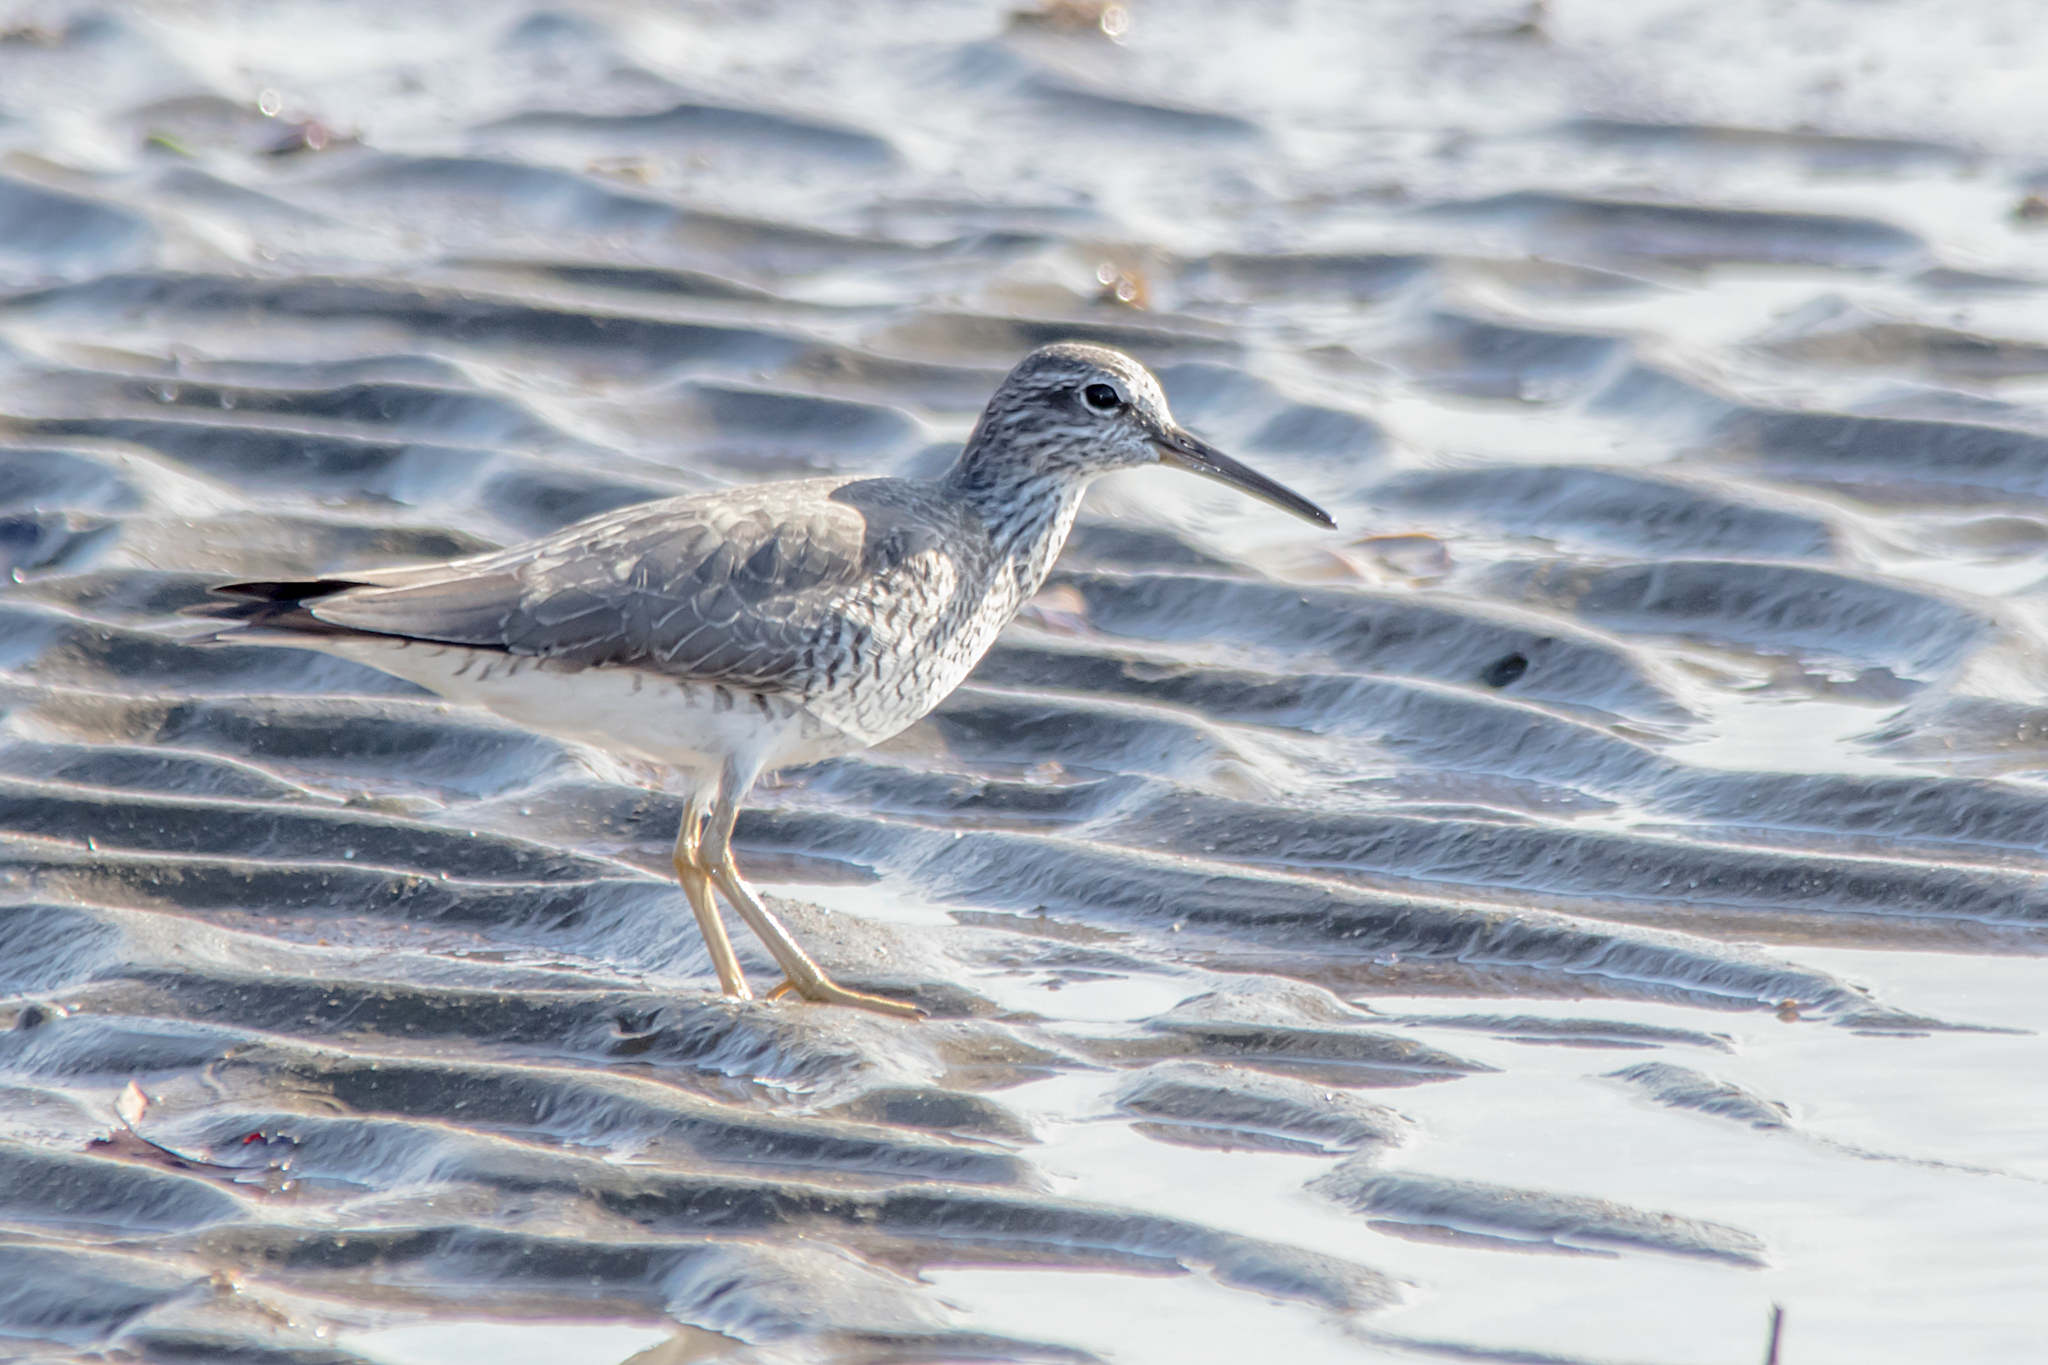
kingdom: Animalia
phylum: Chordata
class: Aves
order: Charadriiformes
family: Scolopacidae
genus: Tringa
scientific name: Tringa brevipes
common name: Grey-tailed tattler
